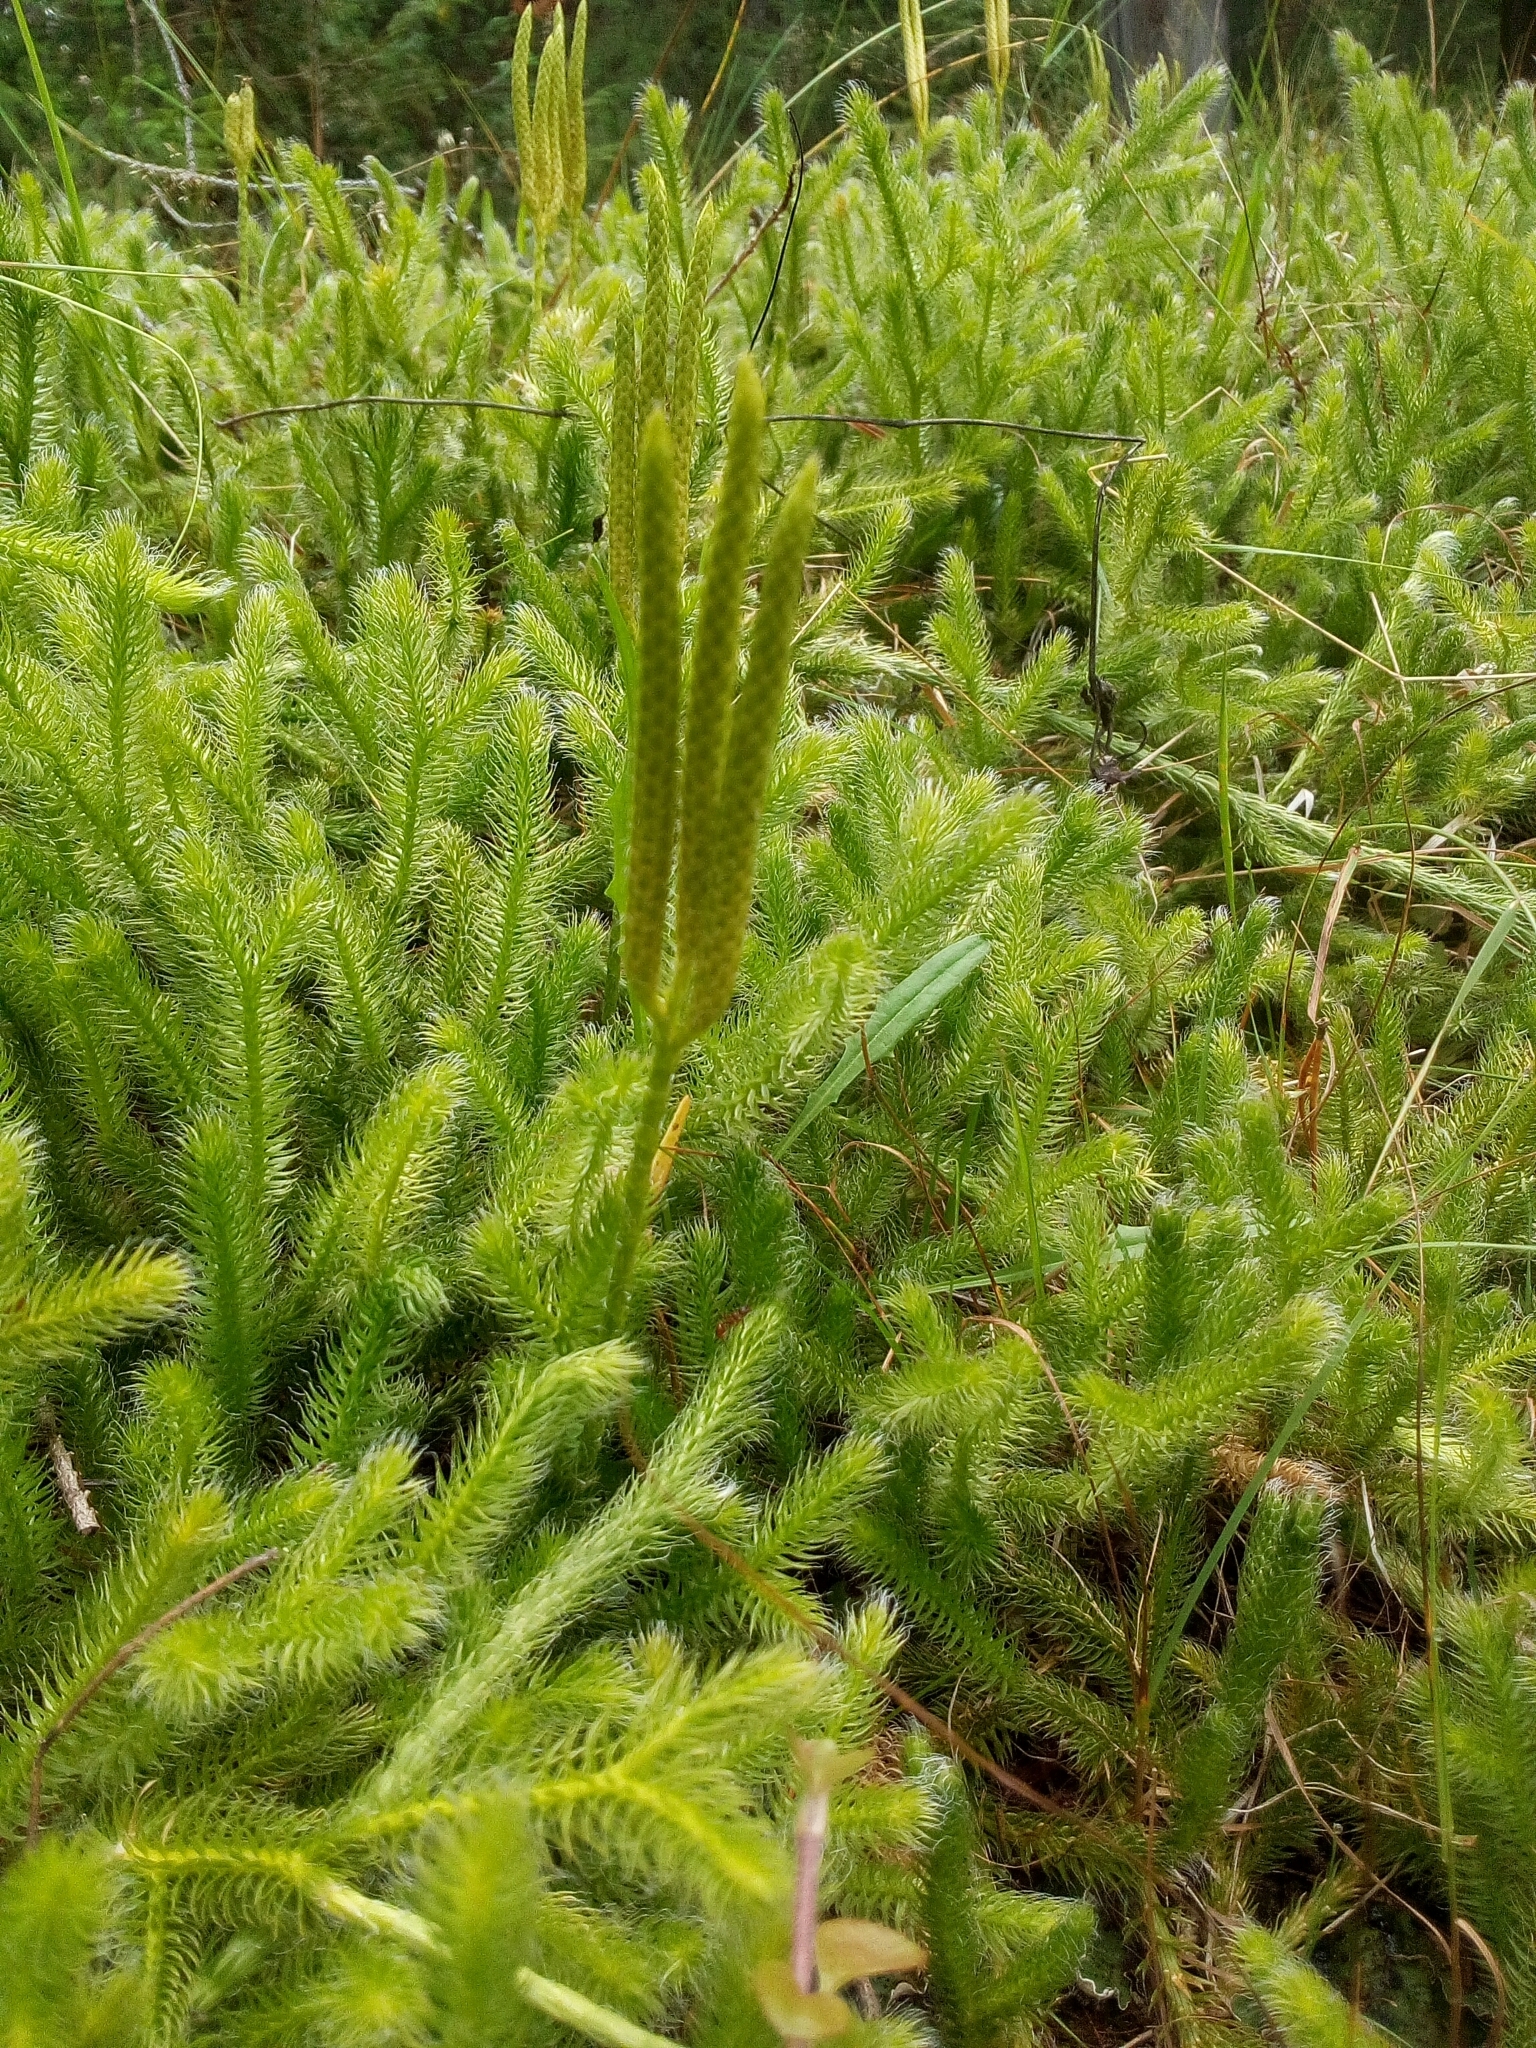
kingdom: Plantae
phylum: Tracheophyta
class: Lycopodiopsida
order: Lycopodiales
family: Lycopodiaceae
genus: Lycopodium
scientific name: Lycopodium clavatum
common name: Stag's-horn clubmoss
